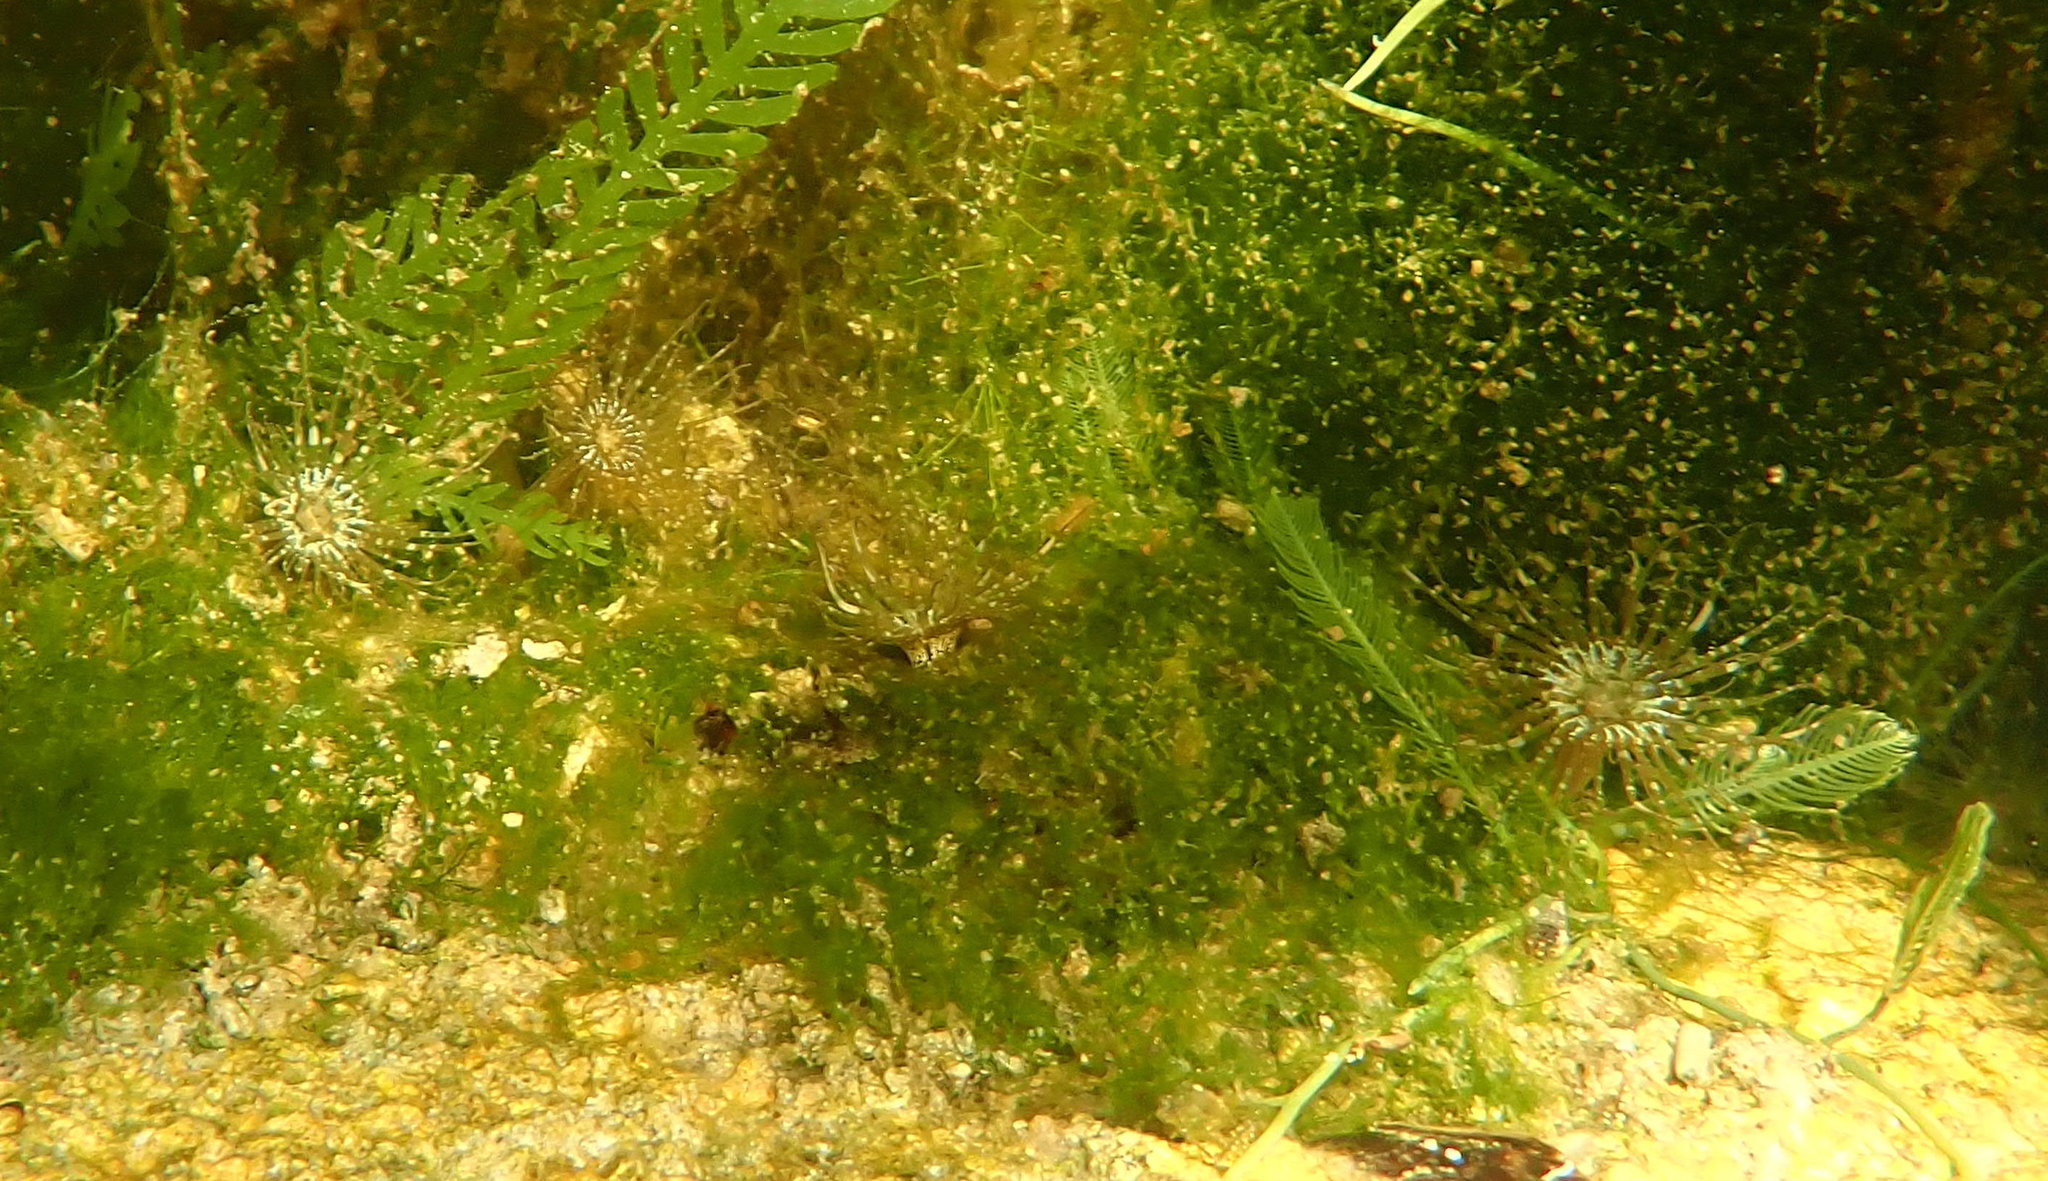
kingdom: Animalia
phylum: Cnidaria
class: Anthozoa
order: Actiniaria
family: Aiptasiidae
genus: Exaiptasia
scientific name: Exaiptasia diaphana
